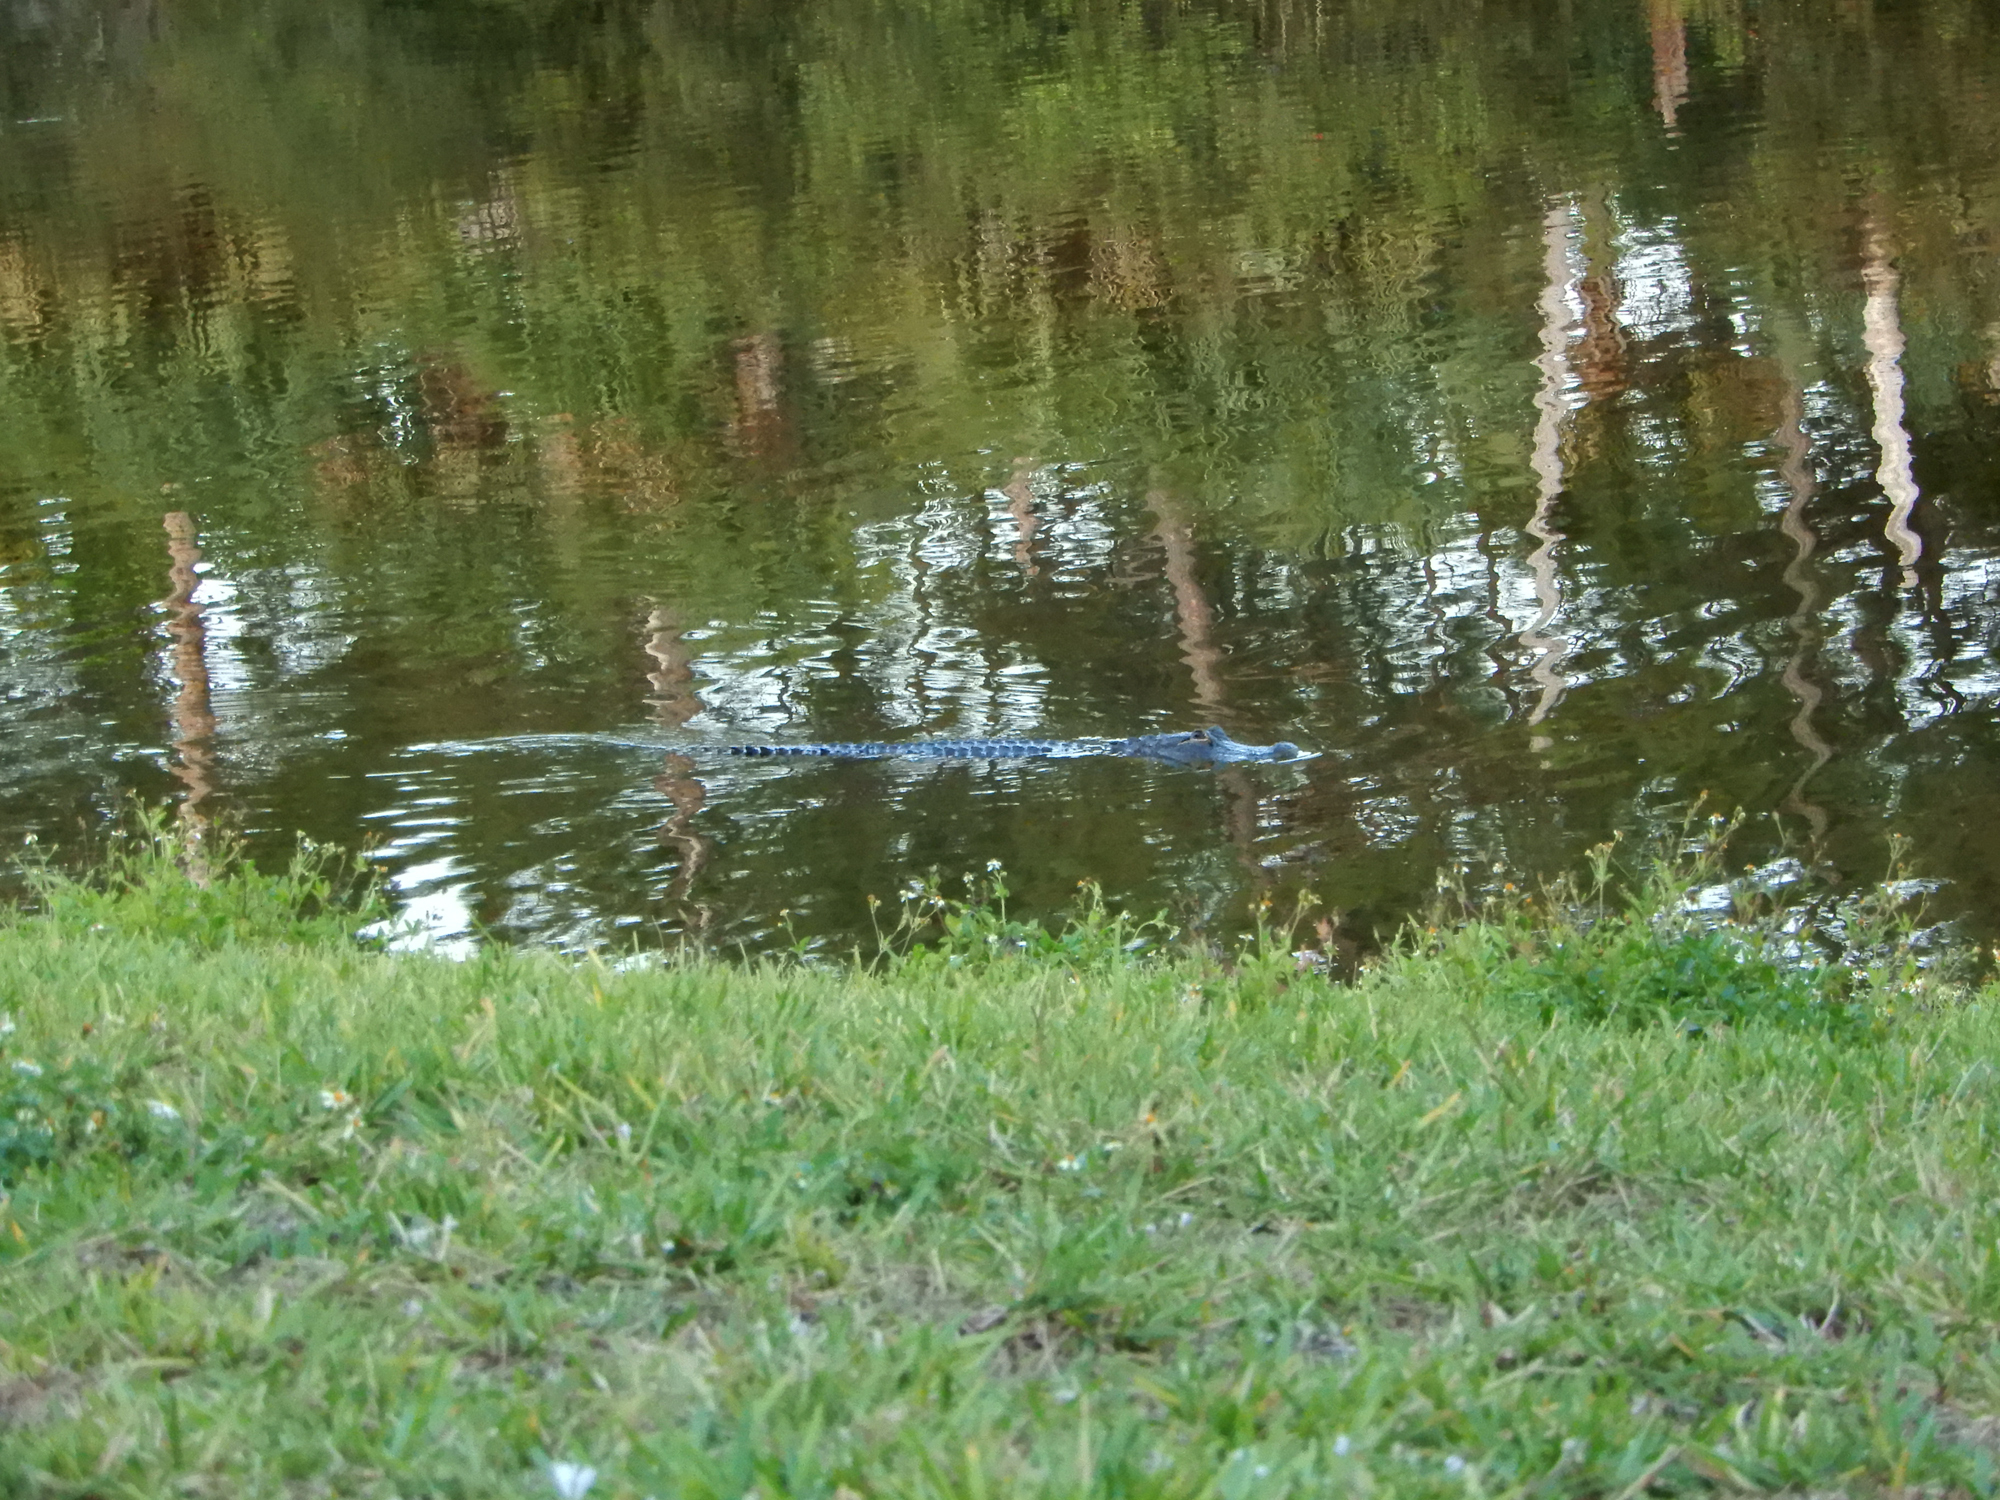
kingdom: Animalia
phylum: Chordata
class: Crocodylia
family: Alligatoridae
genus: Alligator
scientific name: Alligator mississippiensis
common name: American alligator
